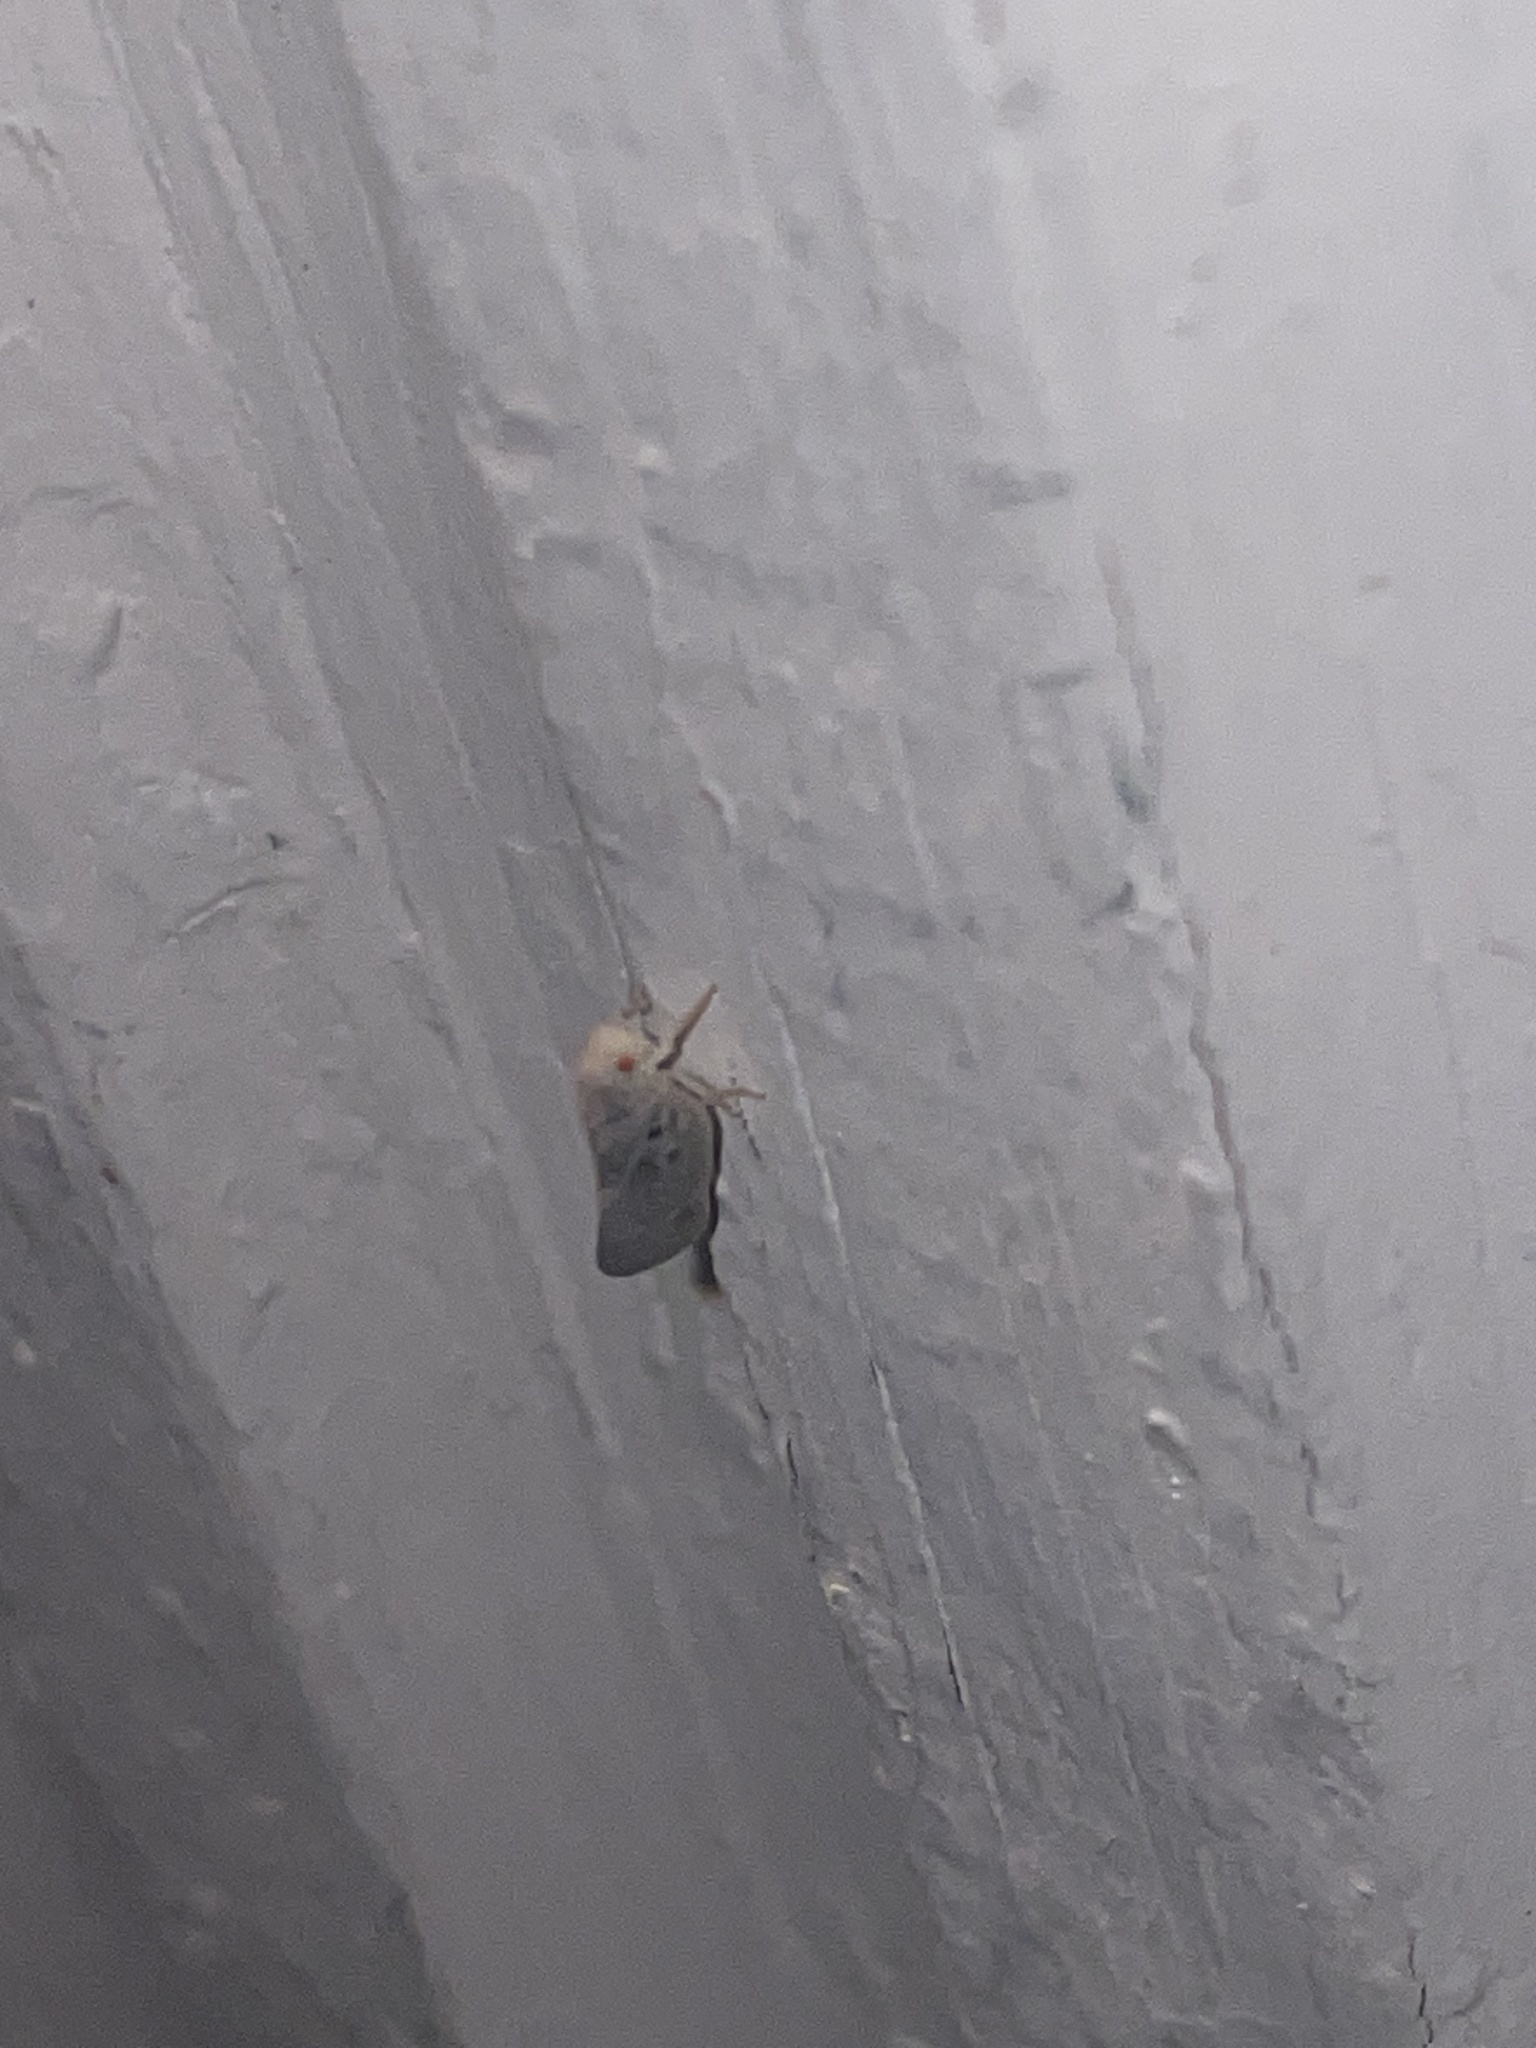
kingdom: Animalia
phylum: Arthropoda
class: Insecta
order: Hemiptera
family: Flatidae
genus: Metcalfa
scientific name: Metcalfa pruinosa
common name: Citrus flatid planthopper
